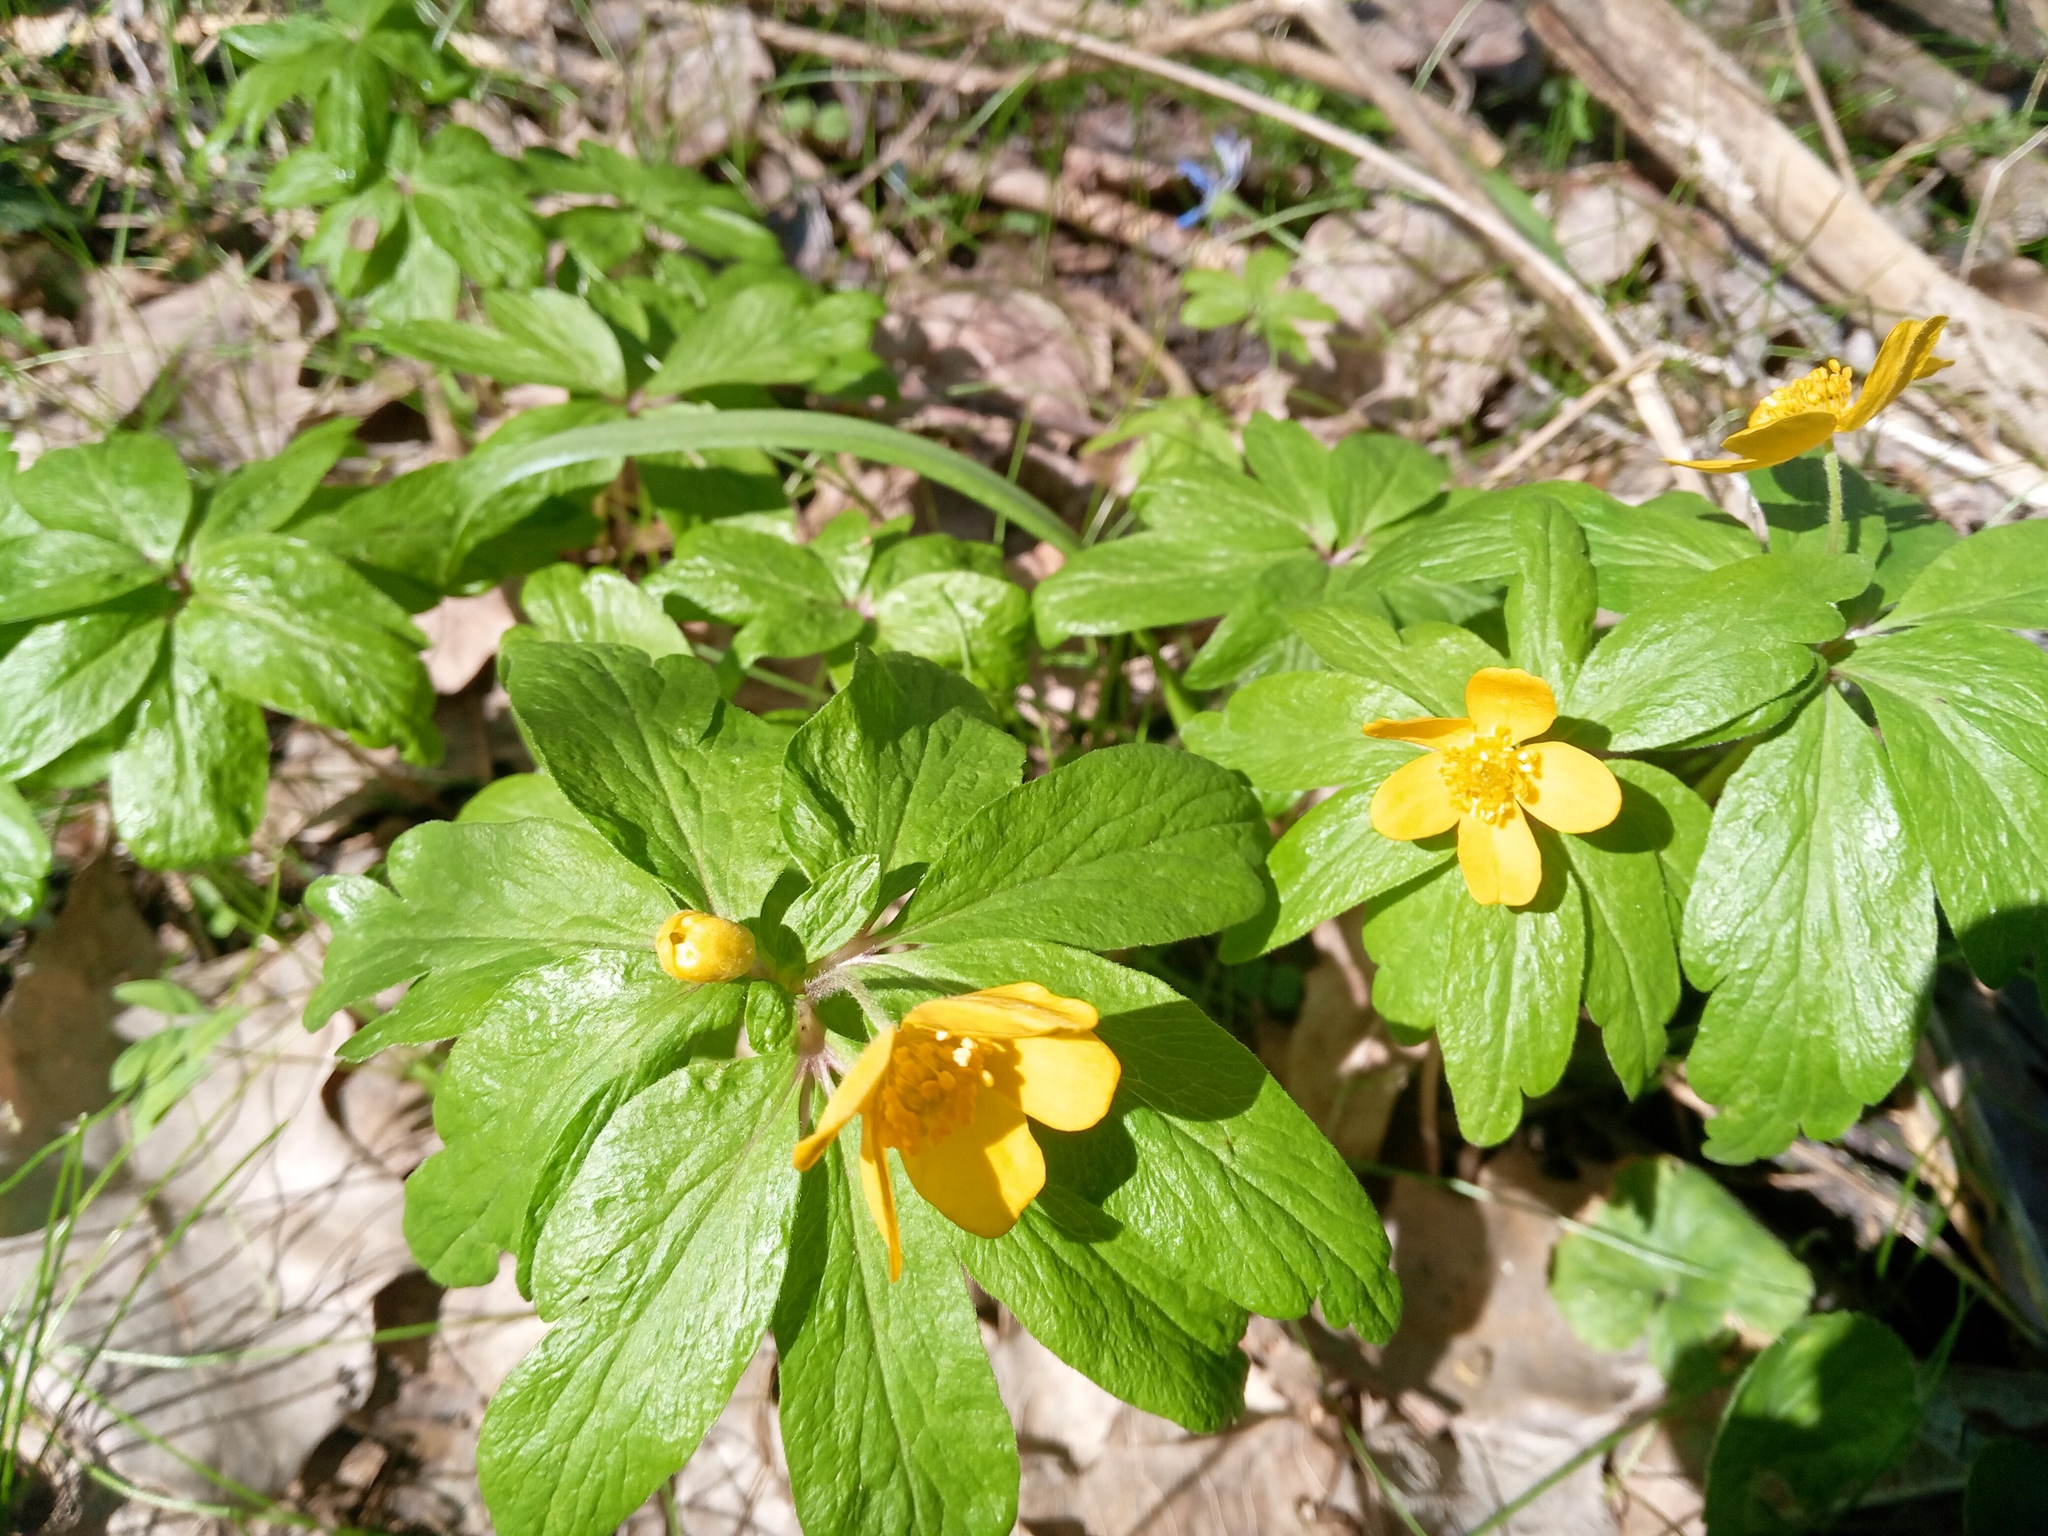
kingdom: Plantae
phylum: Tracheophyta
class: Magnoliopsida
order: Ranunculales
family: Ranunculaceae
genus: Anemone
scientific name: Anemone ranunculoides
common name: Yellow anemone
